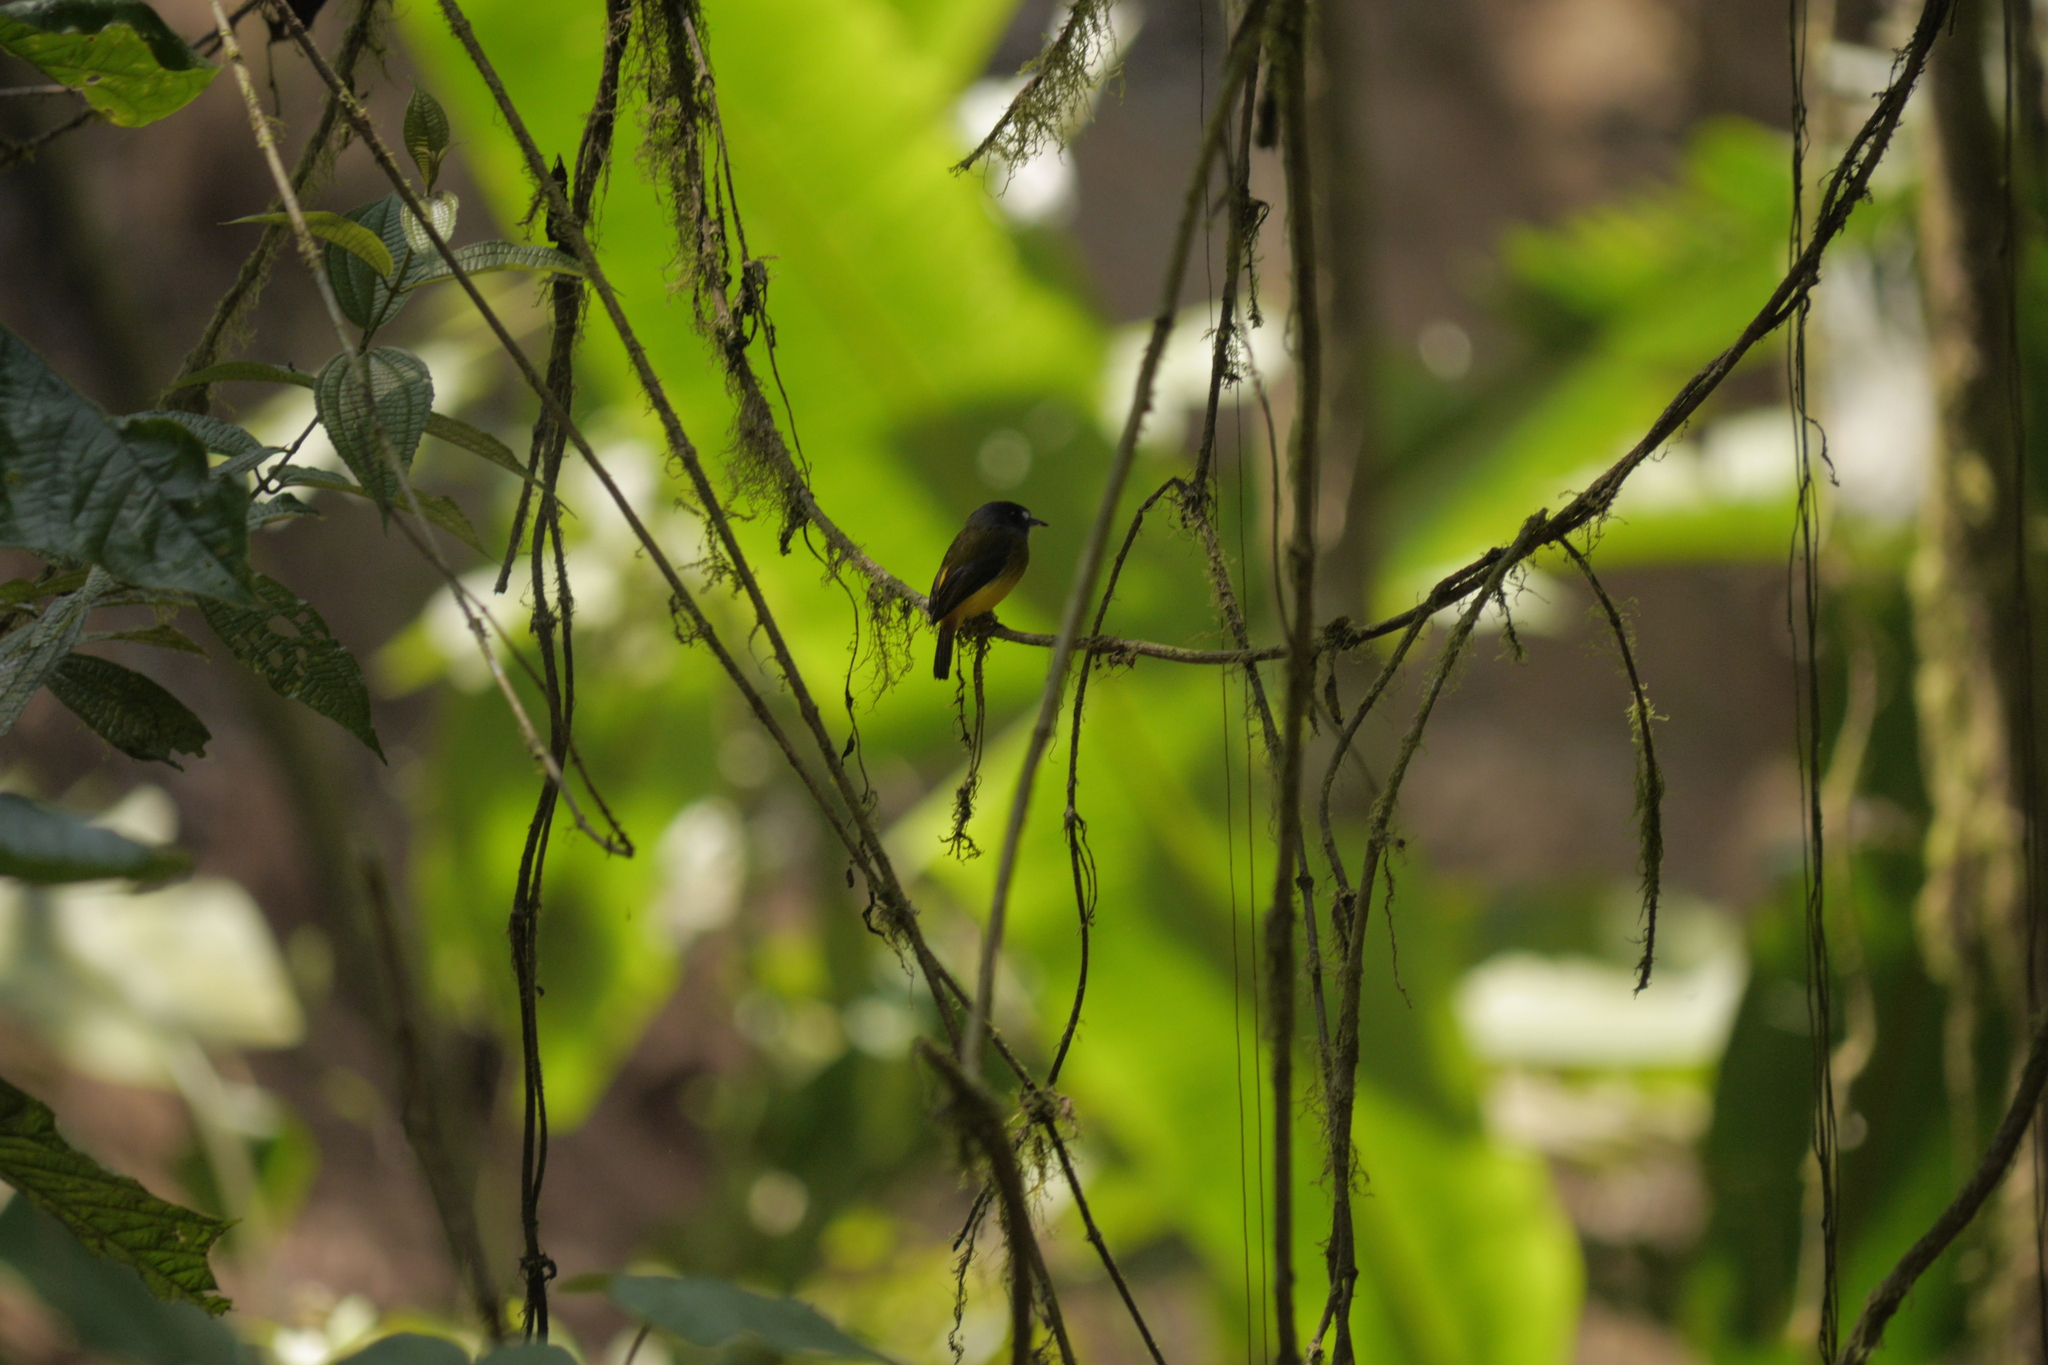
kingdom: Animalia
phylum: Chordata
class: Aves
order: Passeriformes
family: Tyrannidae
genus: Myiotriccus
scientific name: Myiotriccus ornatus
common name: Ornate flycatcher
